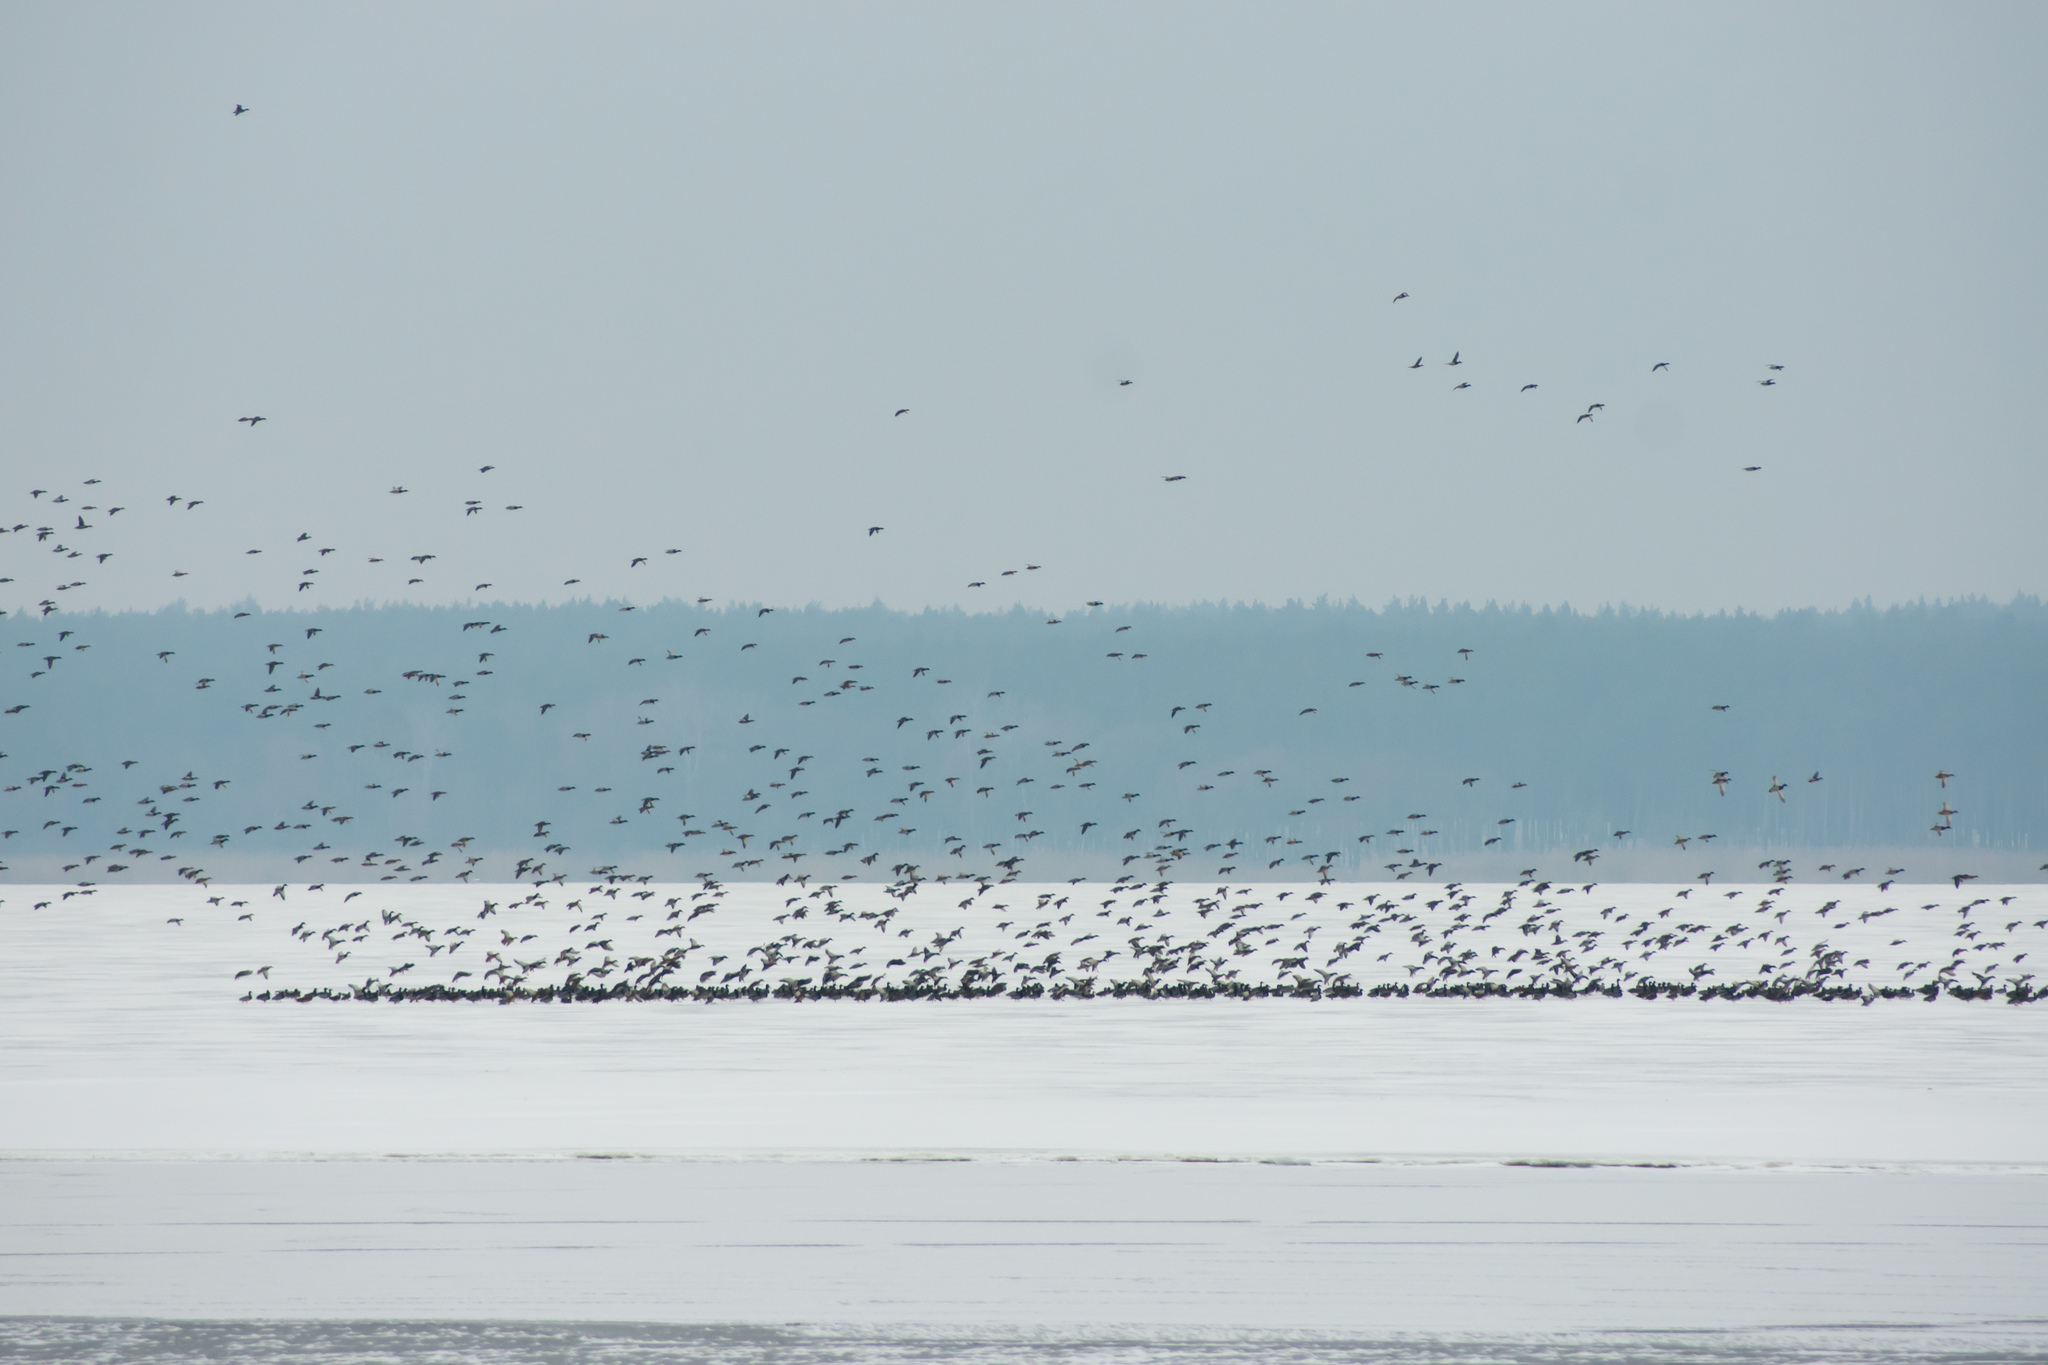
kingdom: Animalia
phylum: Chordata
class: Aves
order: Anseriformes
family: Anatidae
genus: Anas
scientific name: Anas platyrhynchos
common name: Mallard
